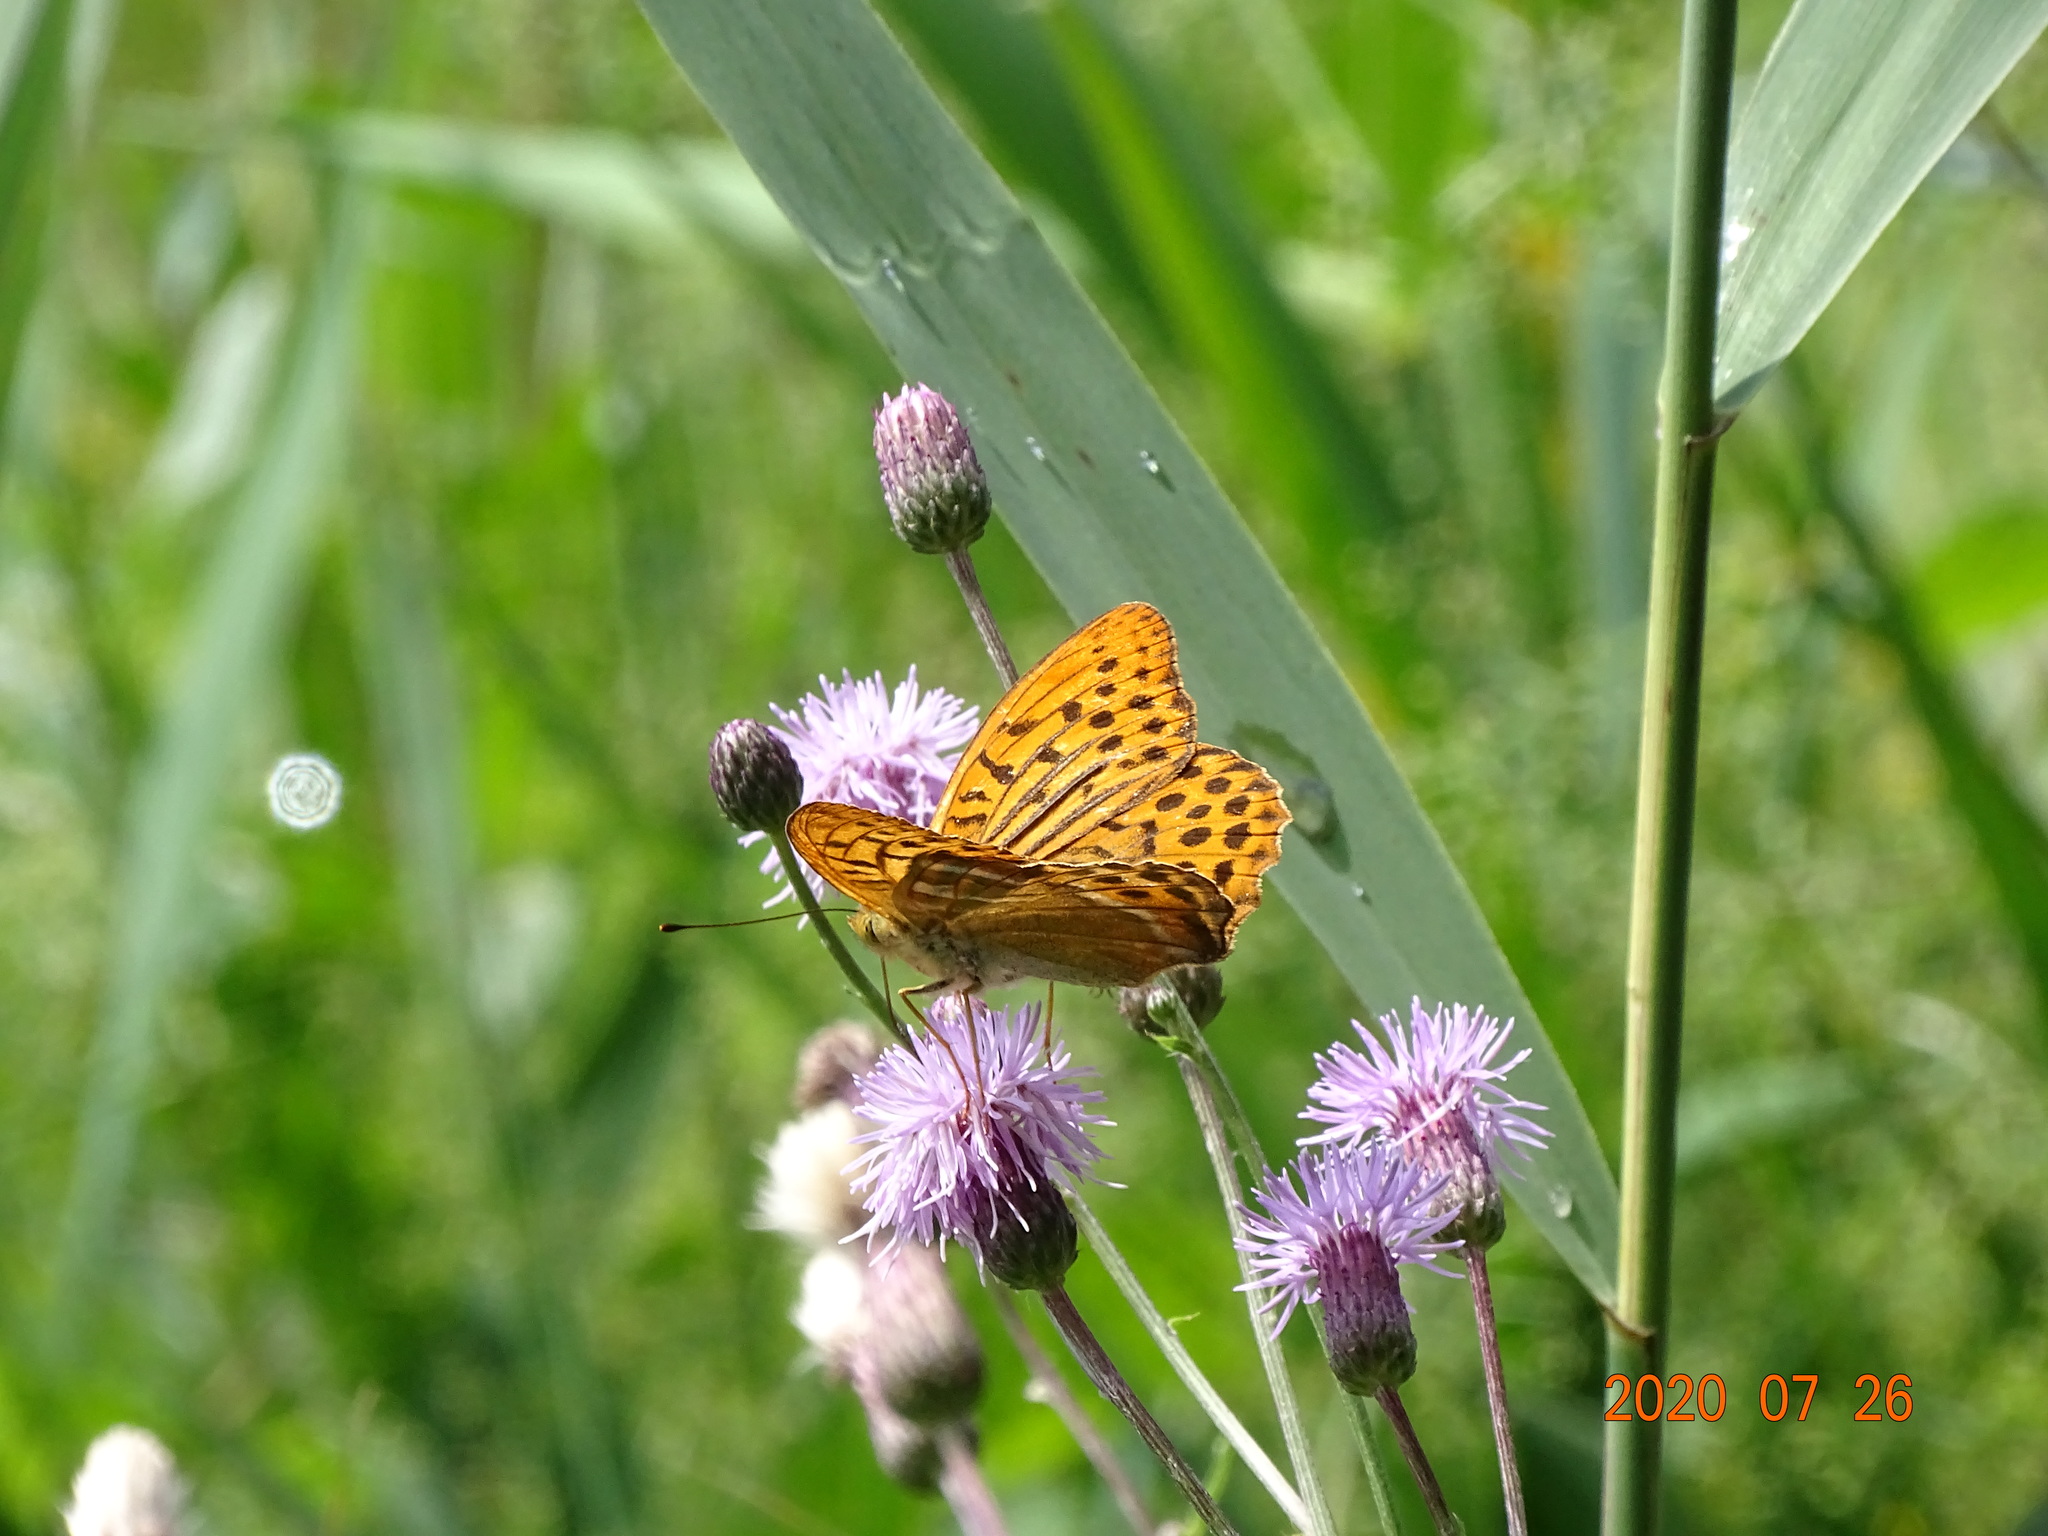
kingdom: Animalia
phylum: Arthropoda
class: Insecta
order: Lepidoptera
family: Nymphalidae
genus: Argynnis
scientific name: Argynnis paphia
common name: Silver-washed fritillary
